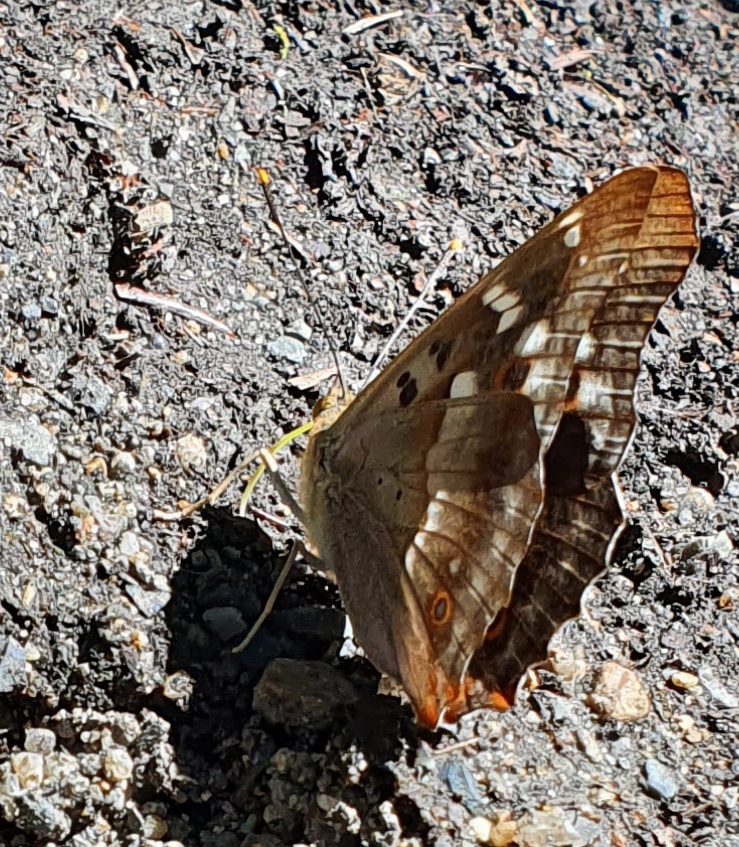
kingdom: Animalia
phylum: Arthropoda
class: Insecta
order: Lepidoptera
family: Nymphalidae
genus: Apatura
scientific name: Apatura ilia
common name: Lesser purple emperor
